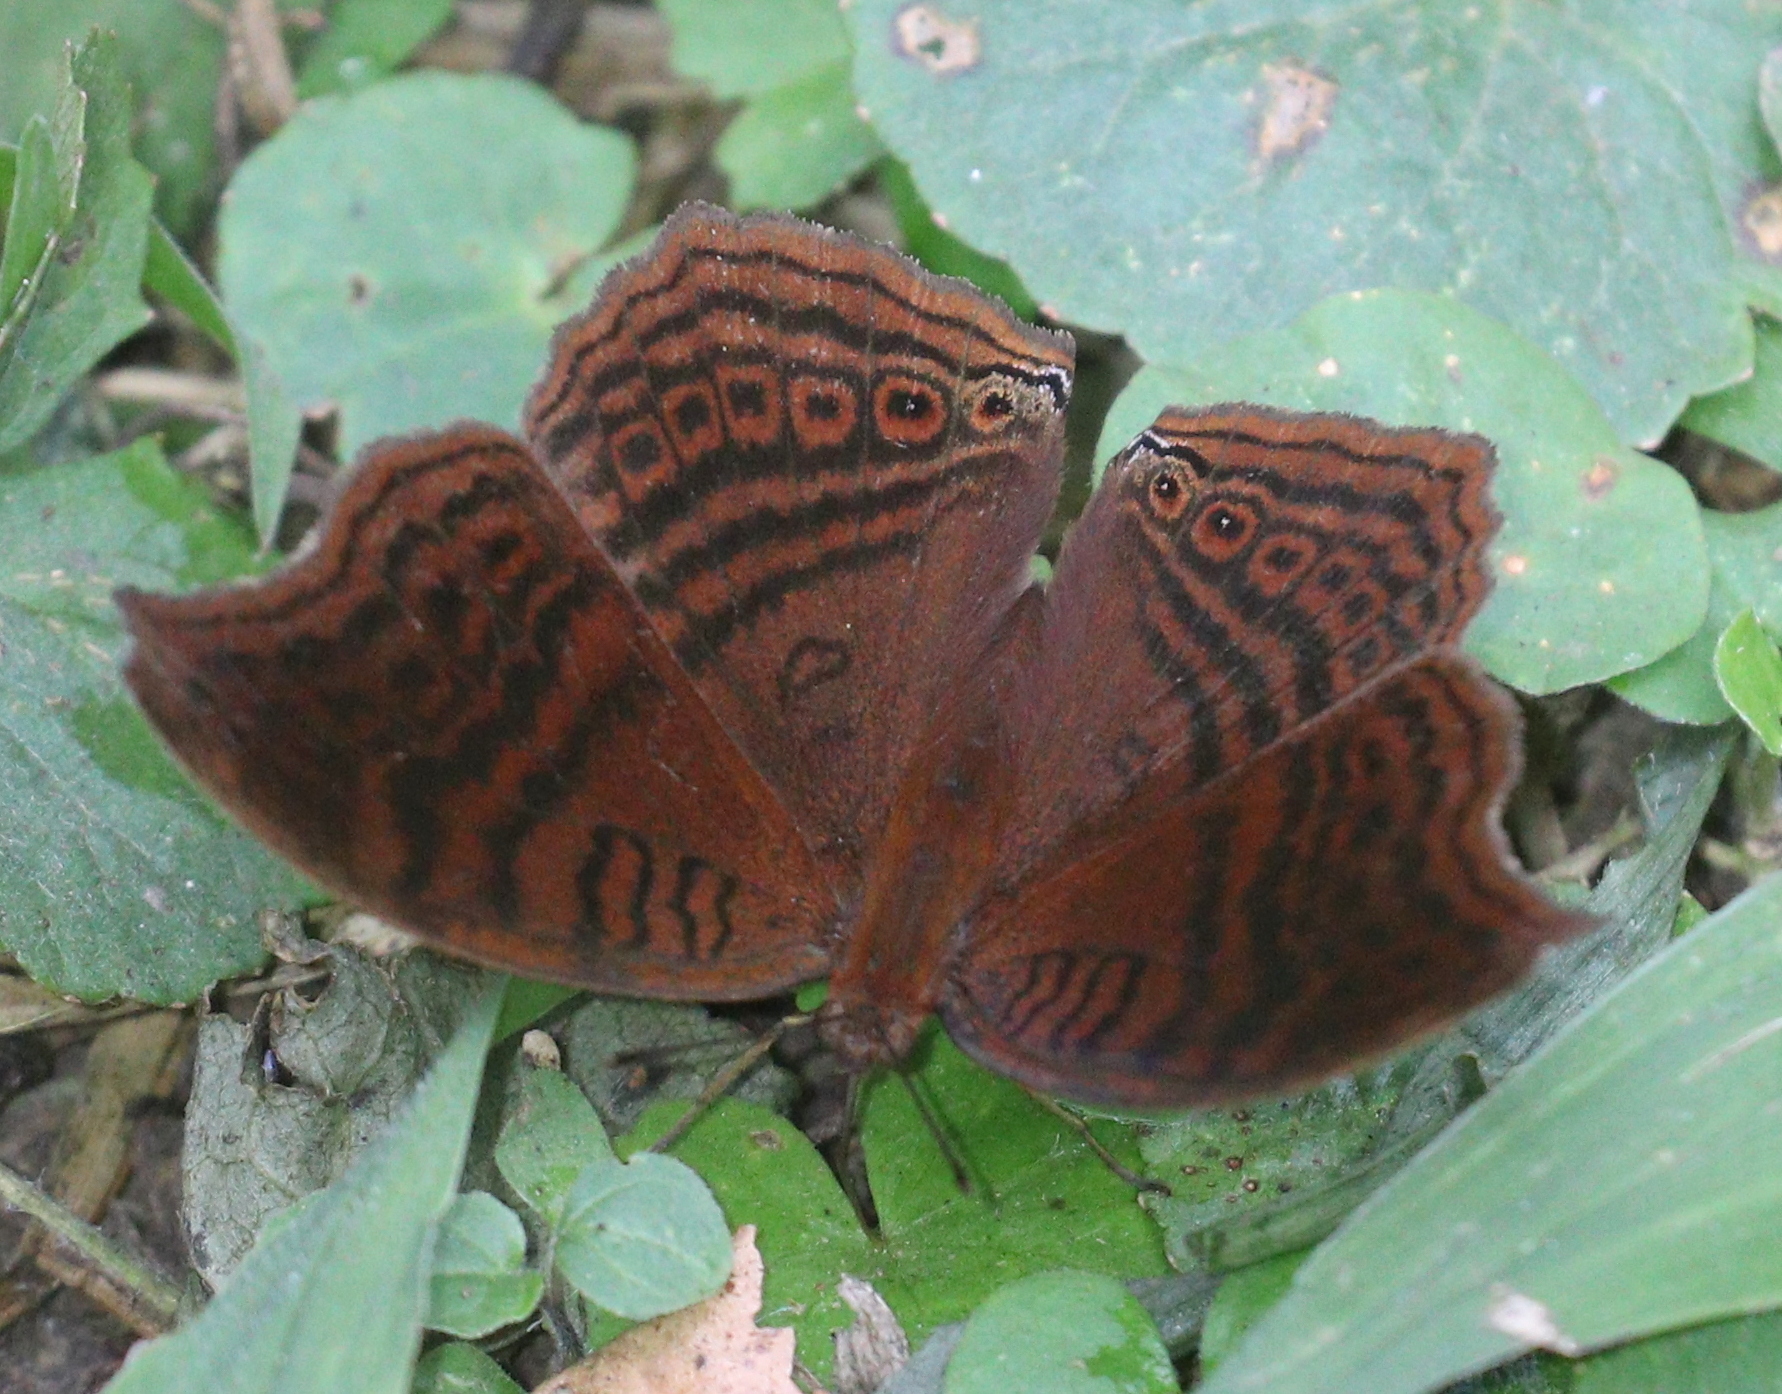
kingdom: Animalia
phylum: Arthropoda
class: Insecta
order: Lepidoptera
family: Nymphalidae
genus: Junonia
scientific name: Junonia stygia
